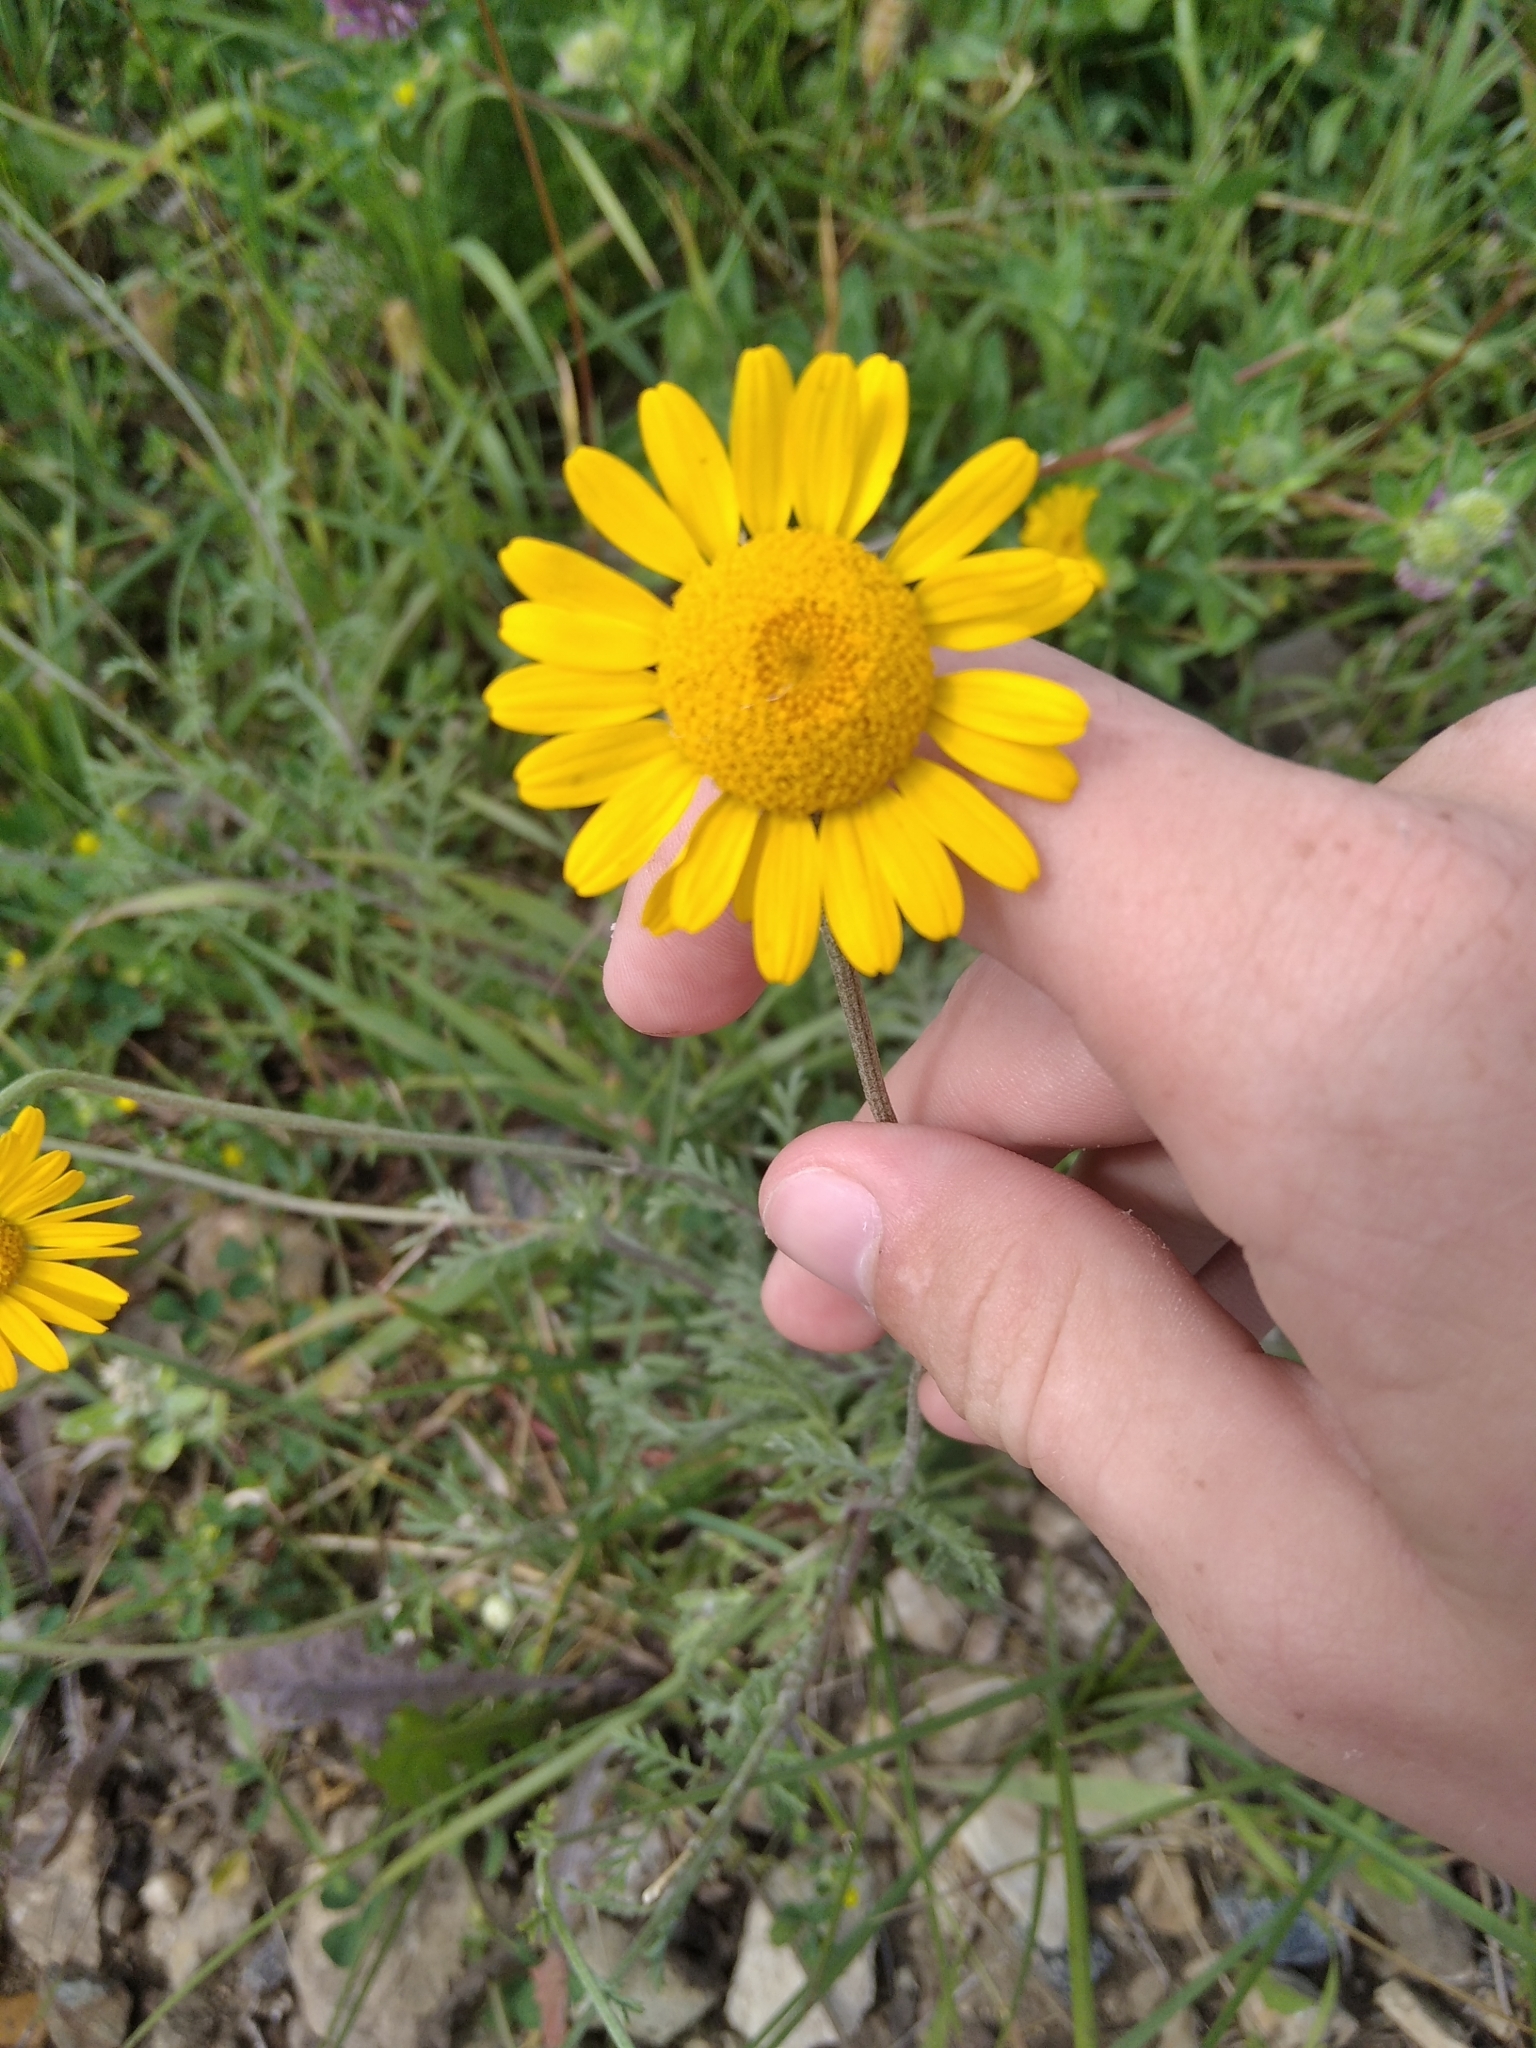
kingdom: Plantae
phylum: Tracheophyta
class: Magnoliopsida
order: Asterales
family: Asteraceae
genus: Cota
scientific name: Cota tinctoria
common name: Golden chamomile
